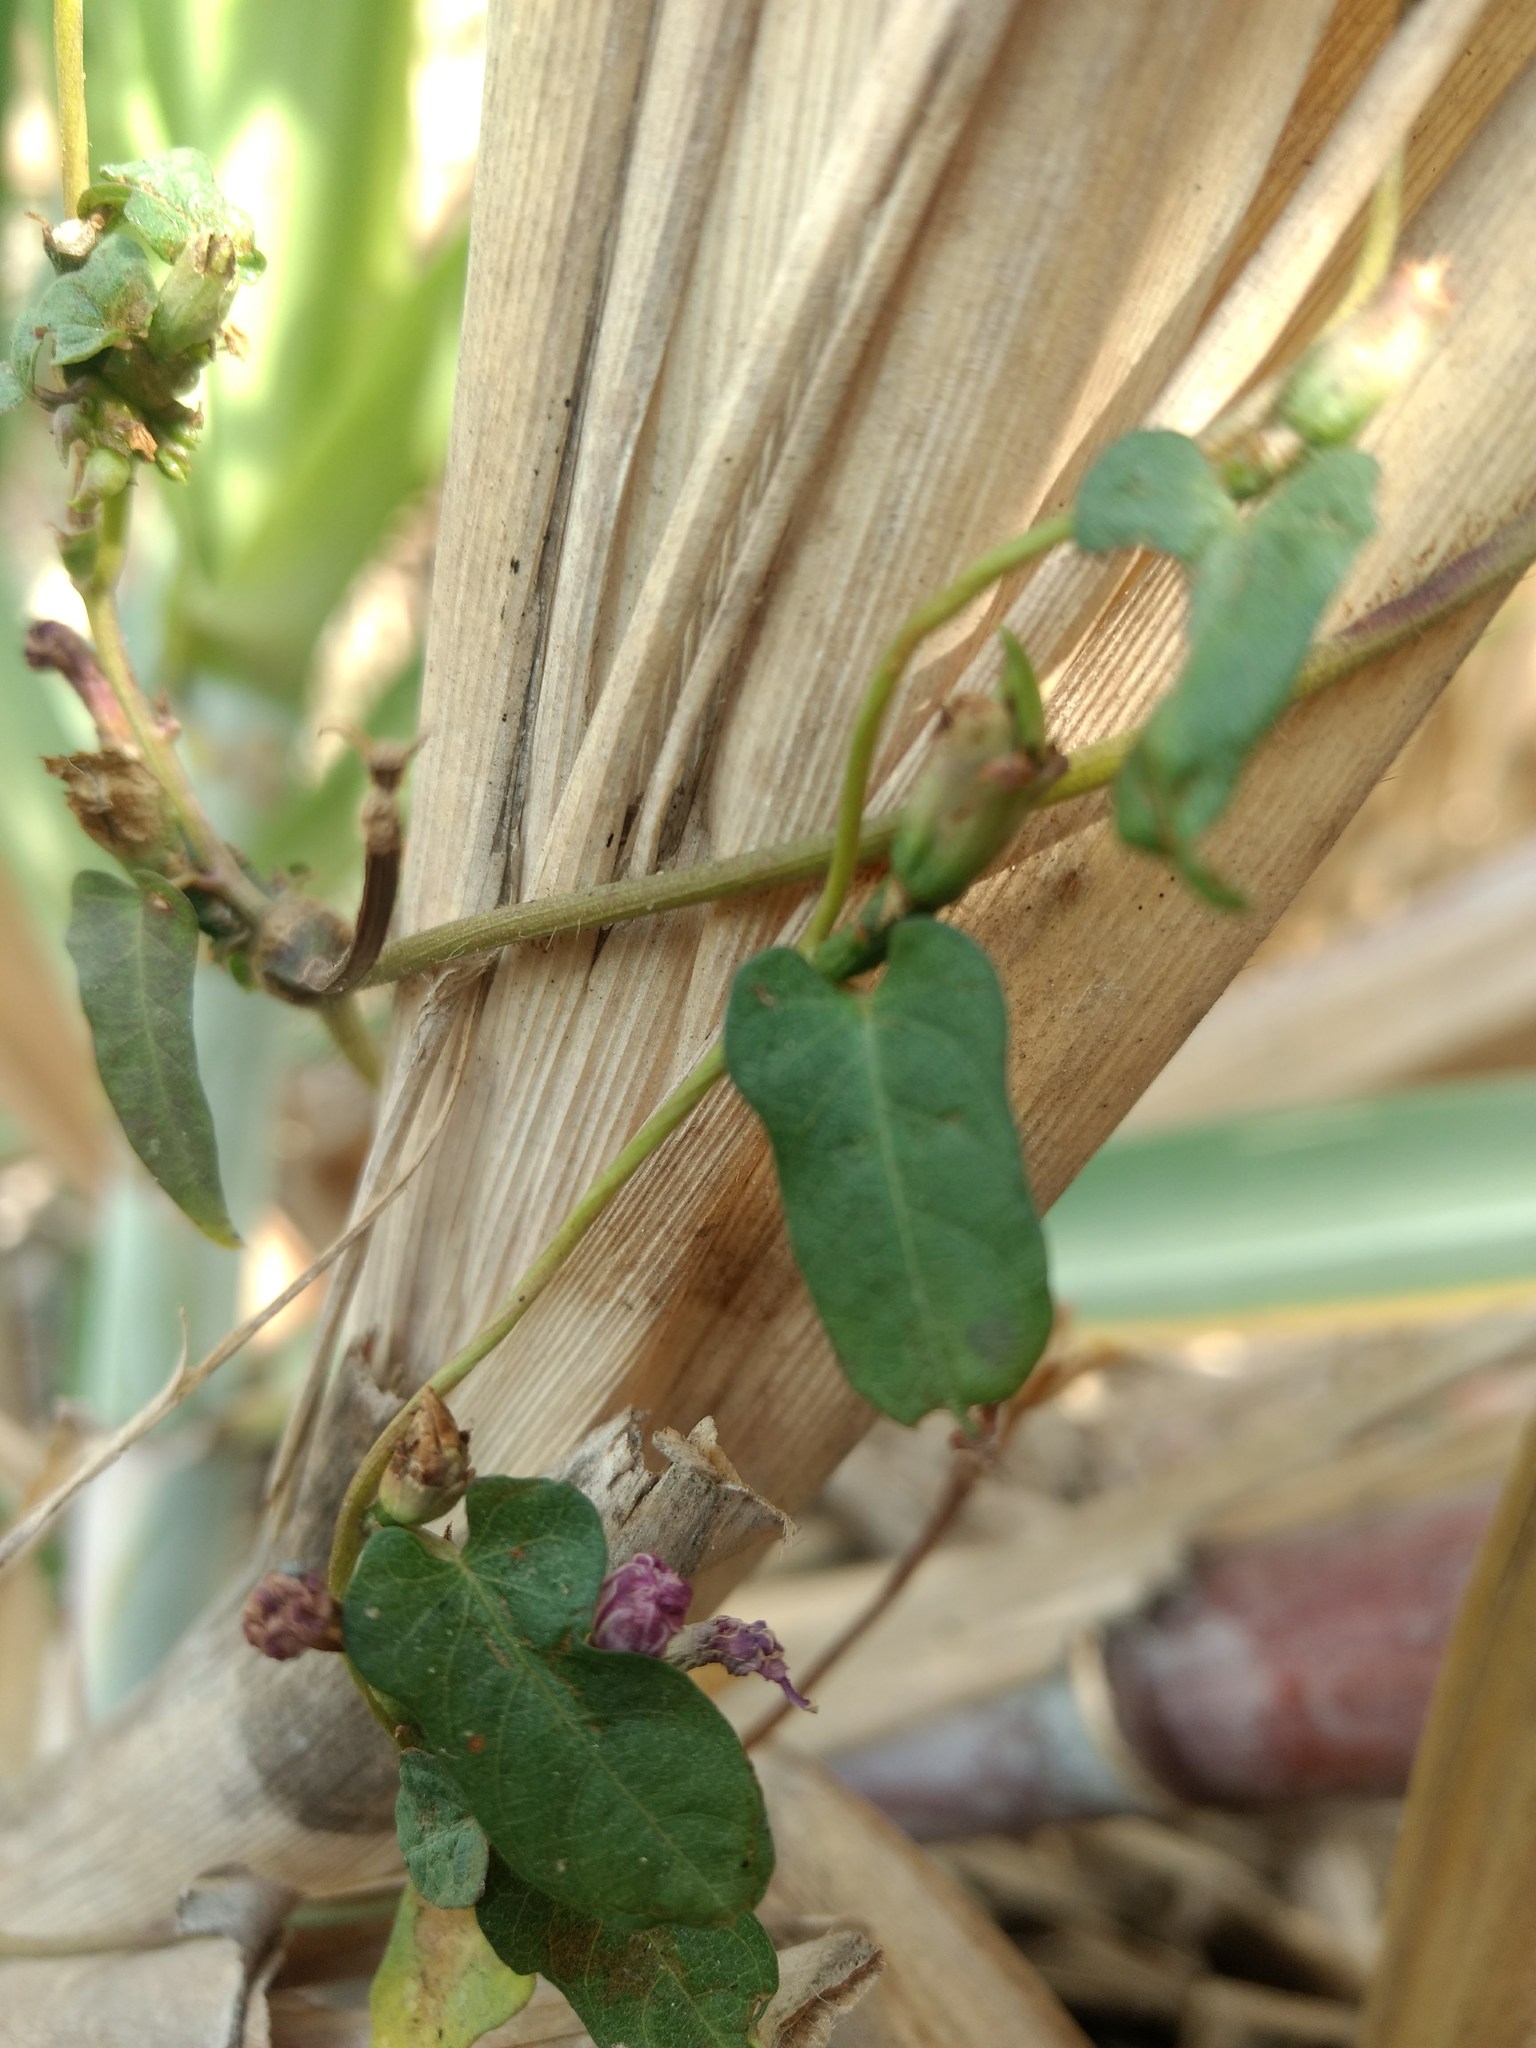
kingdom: Plantae
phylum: Tracheophyta
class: Magnoliopsida
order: Solanales
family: Convolvulaceae
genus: Ipomoea
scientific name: Ipomoea triloba
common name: Little-bell
